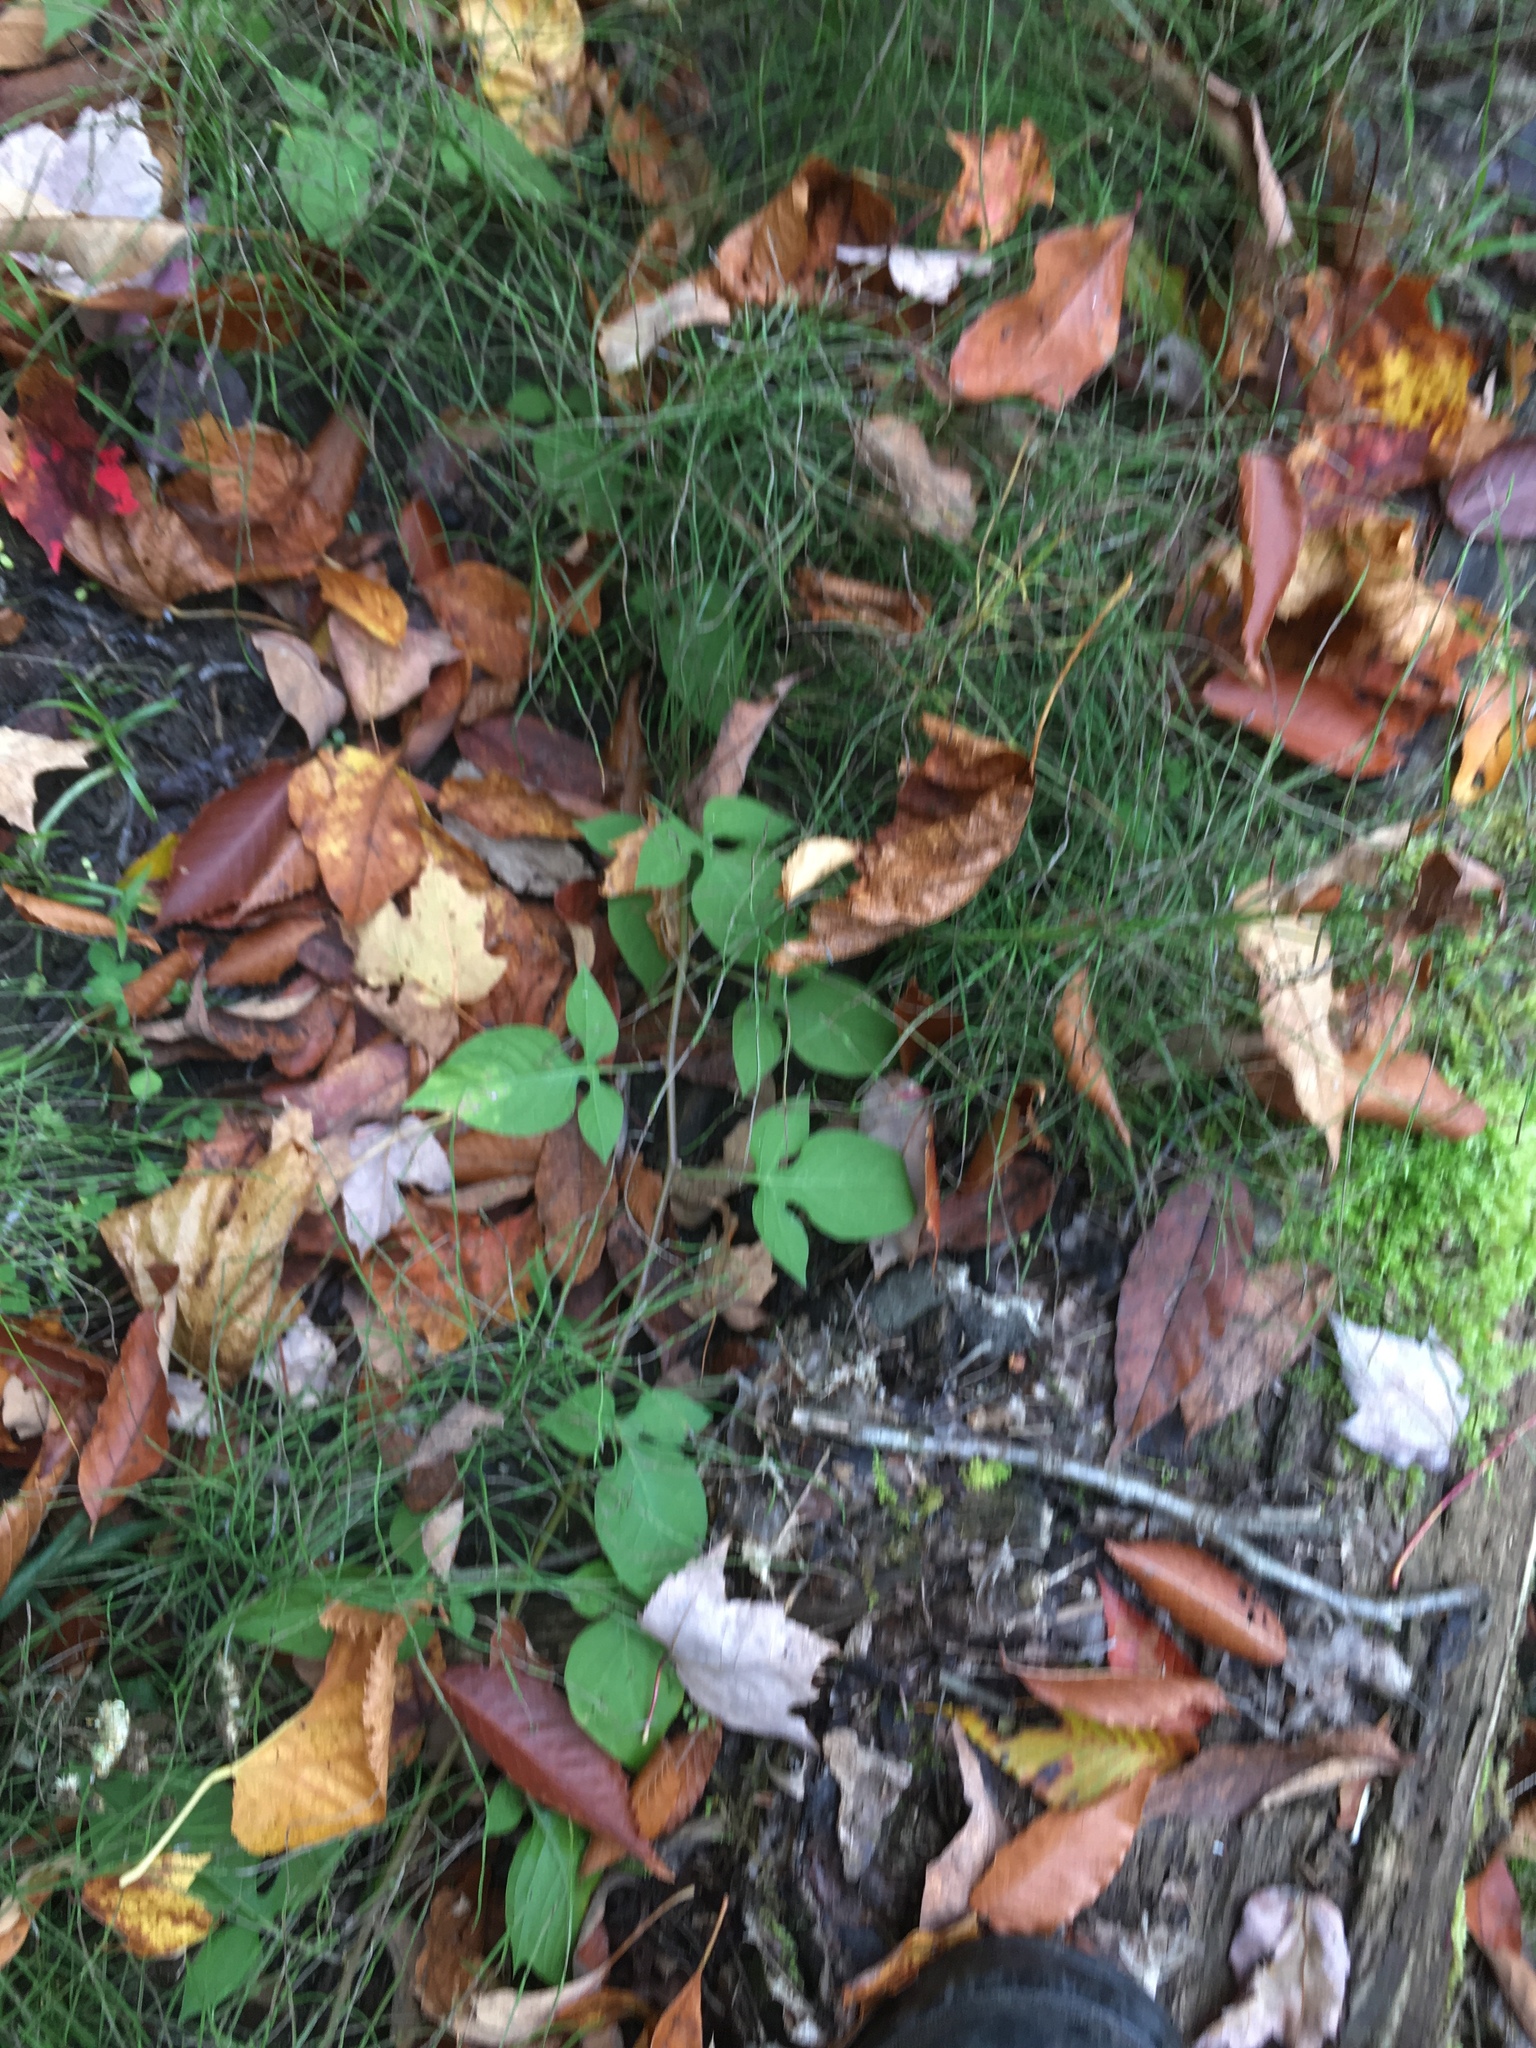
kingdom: Plantae
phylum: Tracheophyta
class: Magnoliopsida
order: Solanales
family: Solanaceae
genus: Solanum
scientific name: Solanum dulcamara
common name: Climbing nightshade
